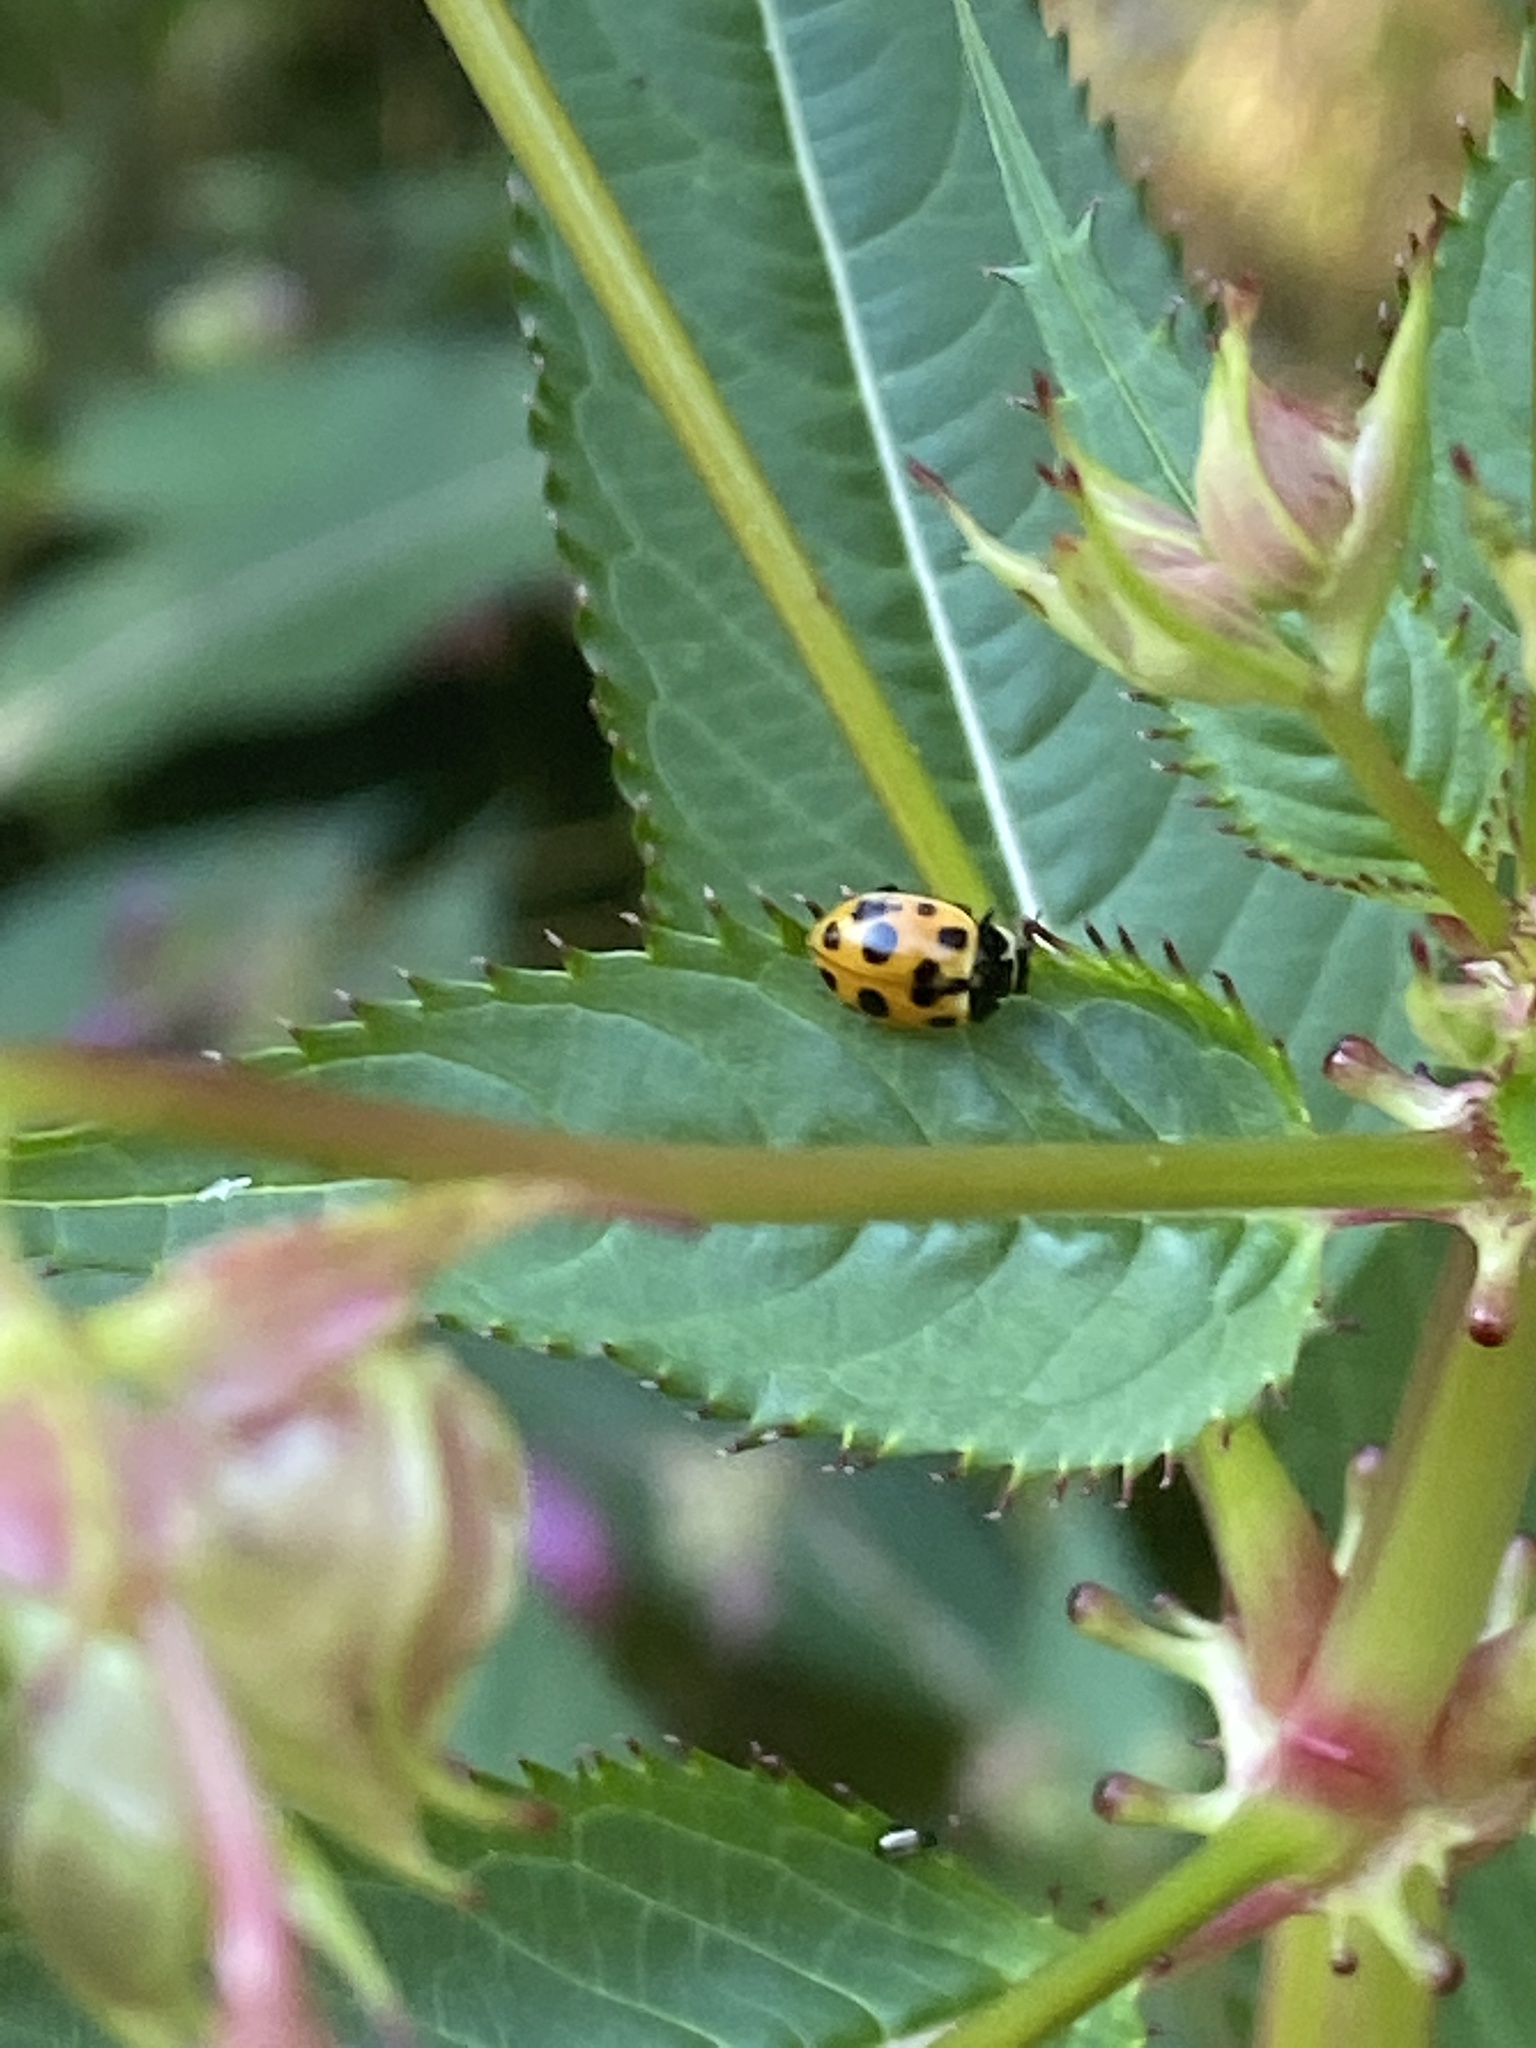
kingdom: Animalia
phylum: Arthropoda
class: Insecta
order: Coleoptera
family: Coccinellidae
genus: Ceratomegilla
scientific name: Ceratomegilla notata
